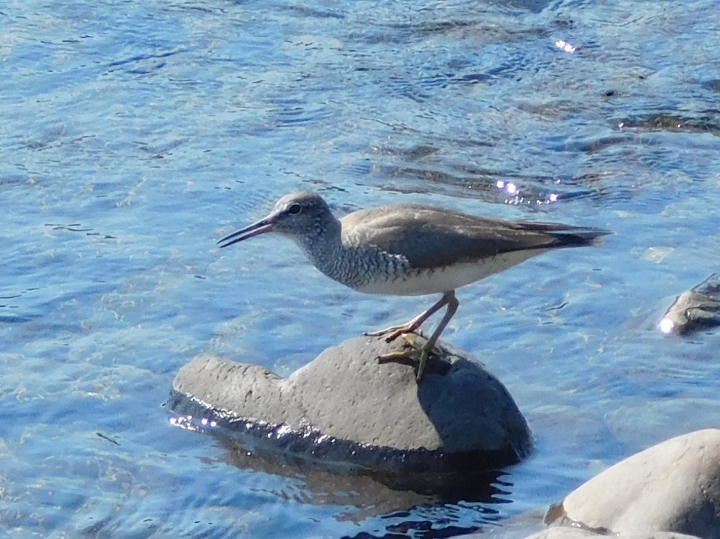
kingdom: Animalia
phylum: Chordata
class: Aves
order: Charadriiformes
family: Scolopacidae
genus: Tringa
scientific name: Tringa brevipes
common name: Grey-tailed tattler
